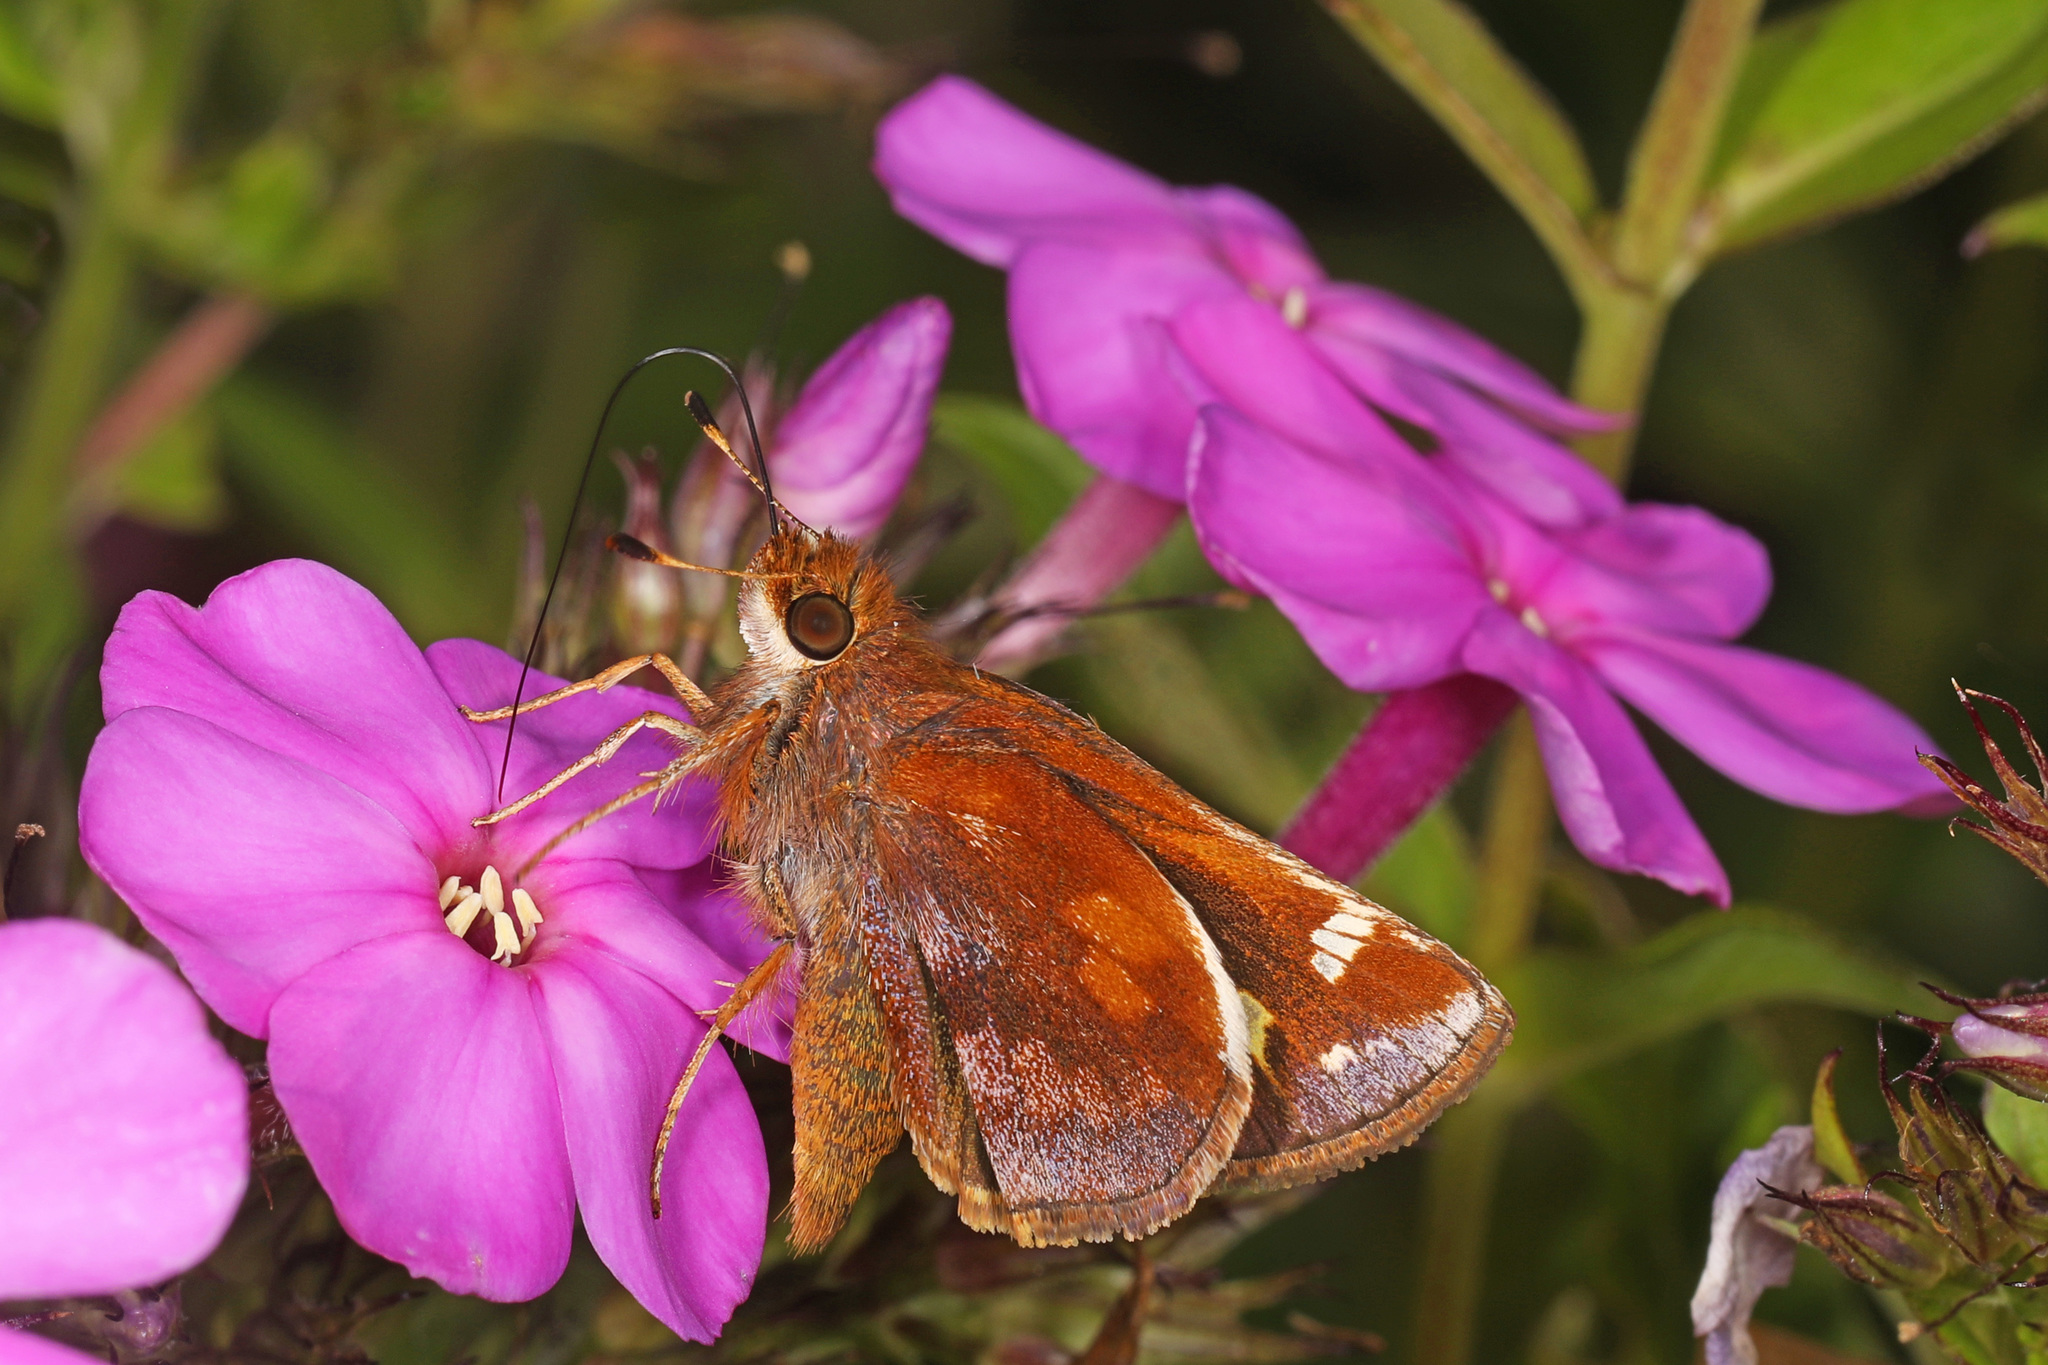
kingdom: Animalia
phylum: Arthropoda
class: Insecta
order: Lepidoptera
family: Hesperiidae
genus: Lon
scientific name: Lon zabulon
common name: Zabulon skipper
